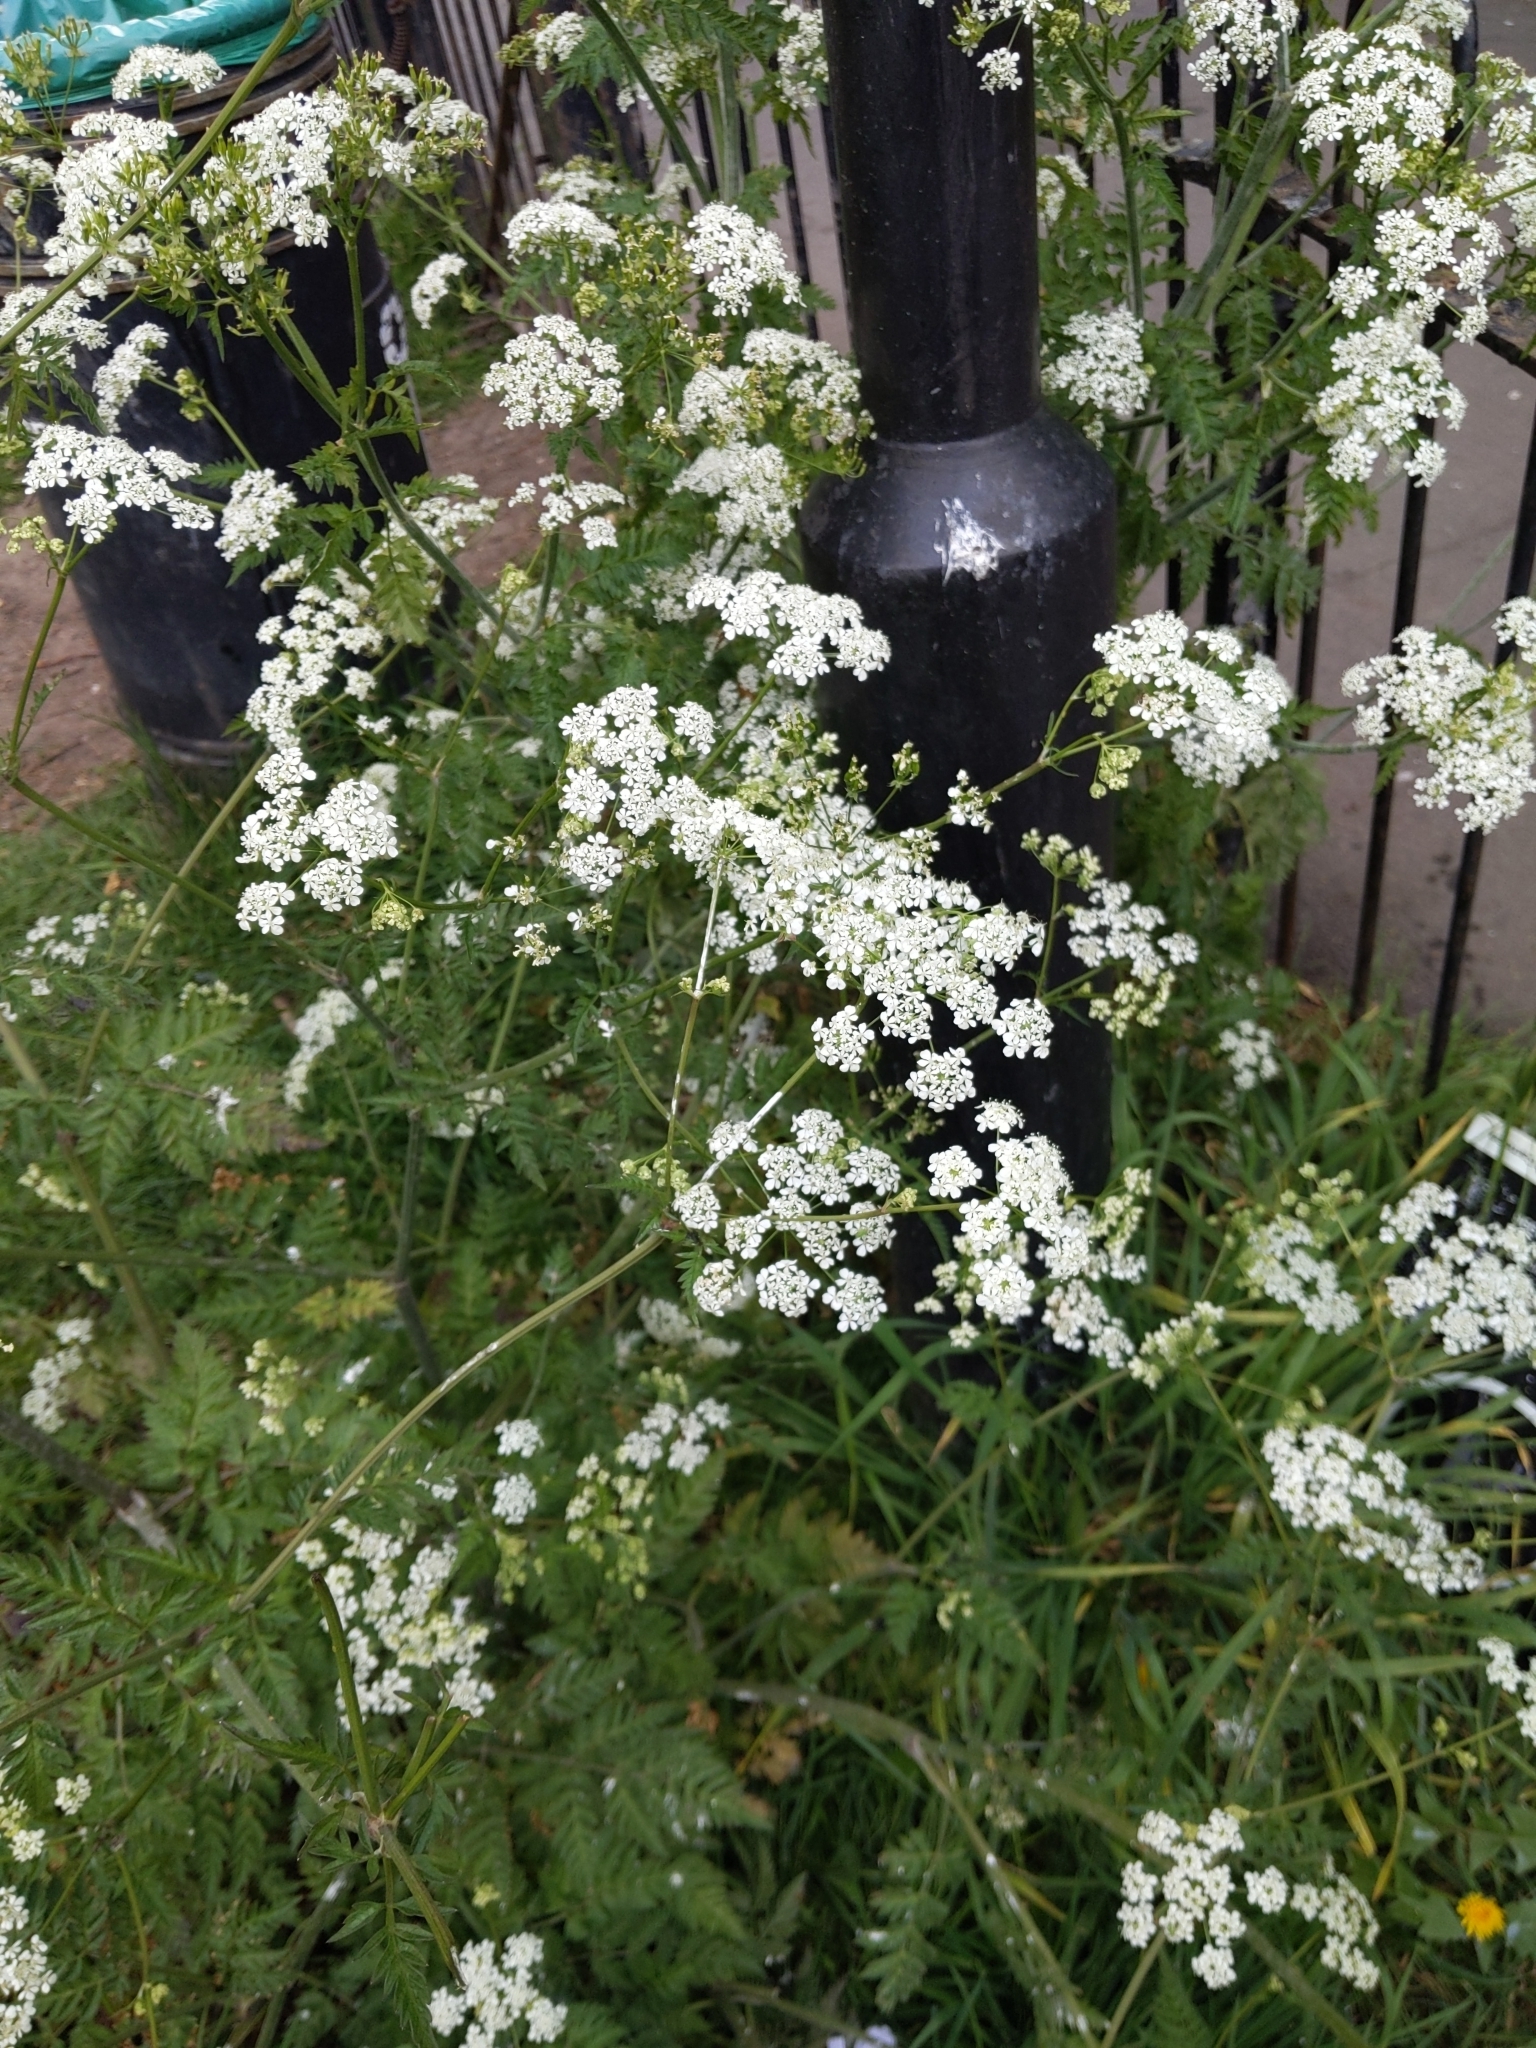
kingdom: Plantae
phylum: Tracheophyta
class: Magnoliopsida
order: Apiales
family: Apiaceae
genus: Anthriscus
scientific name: Anthriscus sylvestris
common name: Cow parsley
